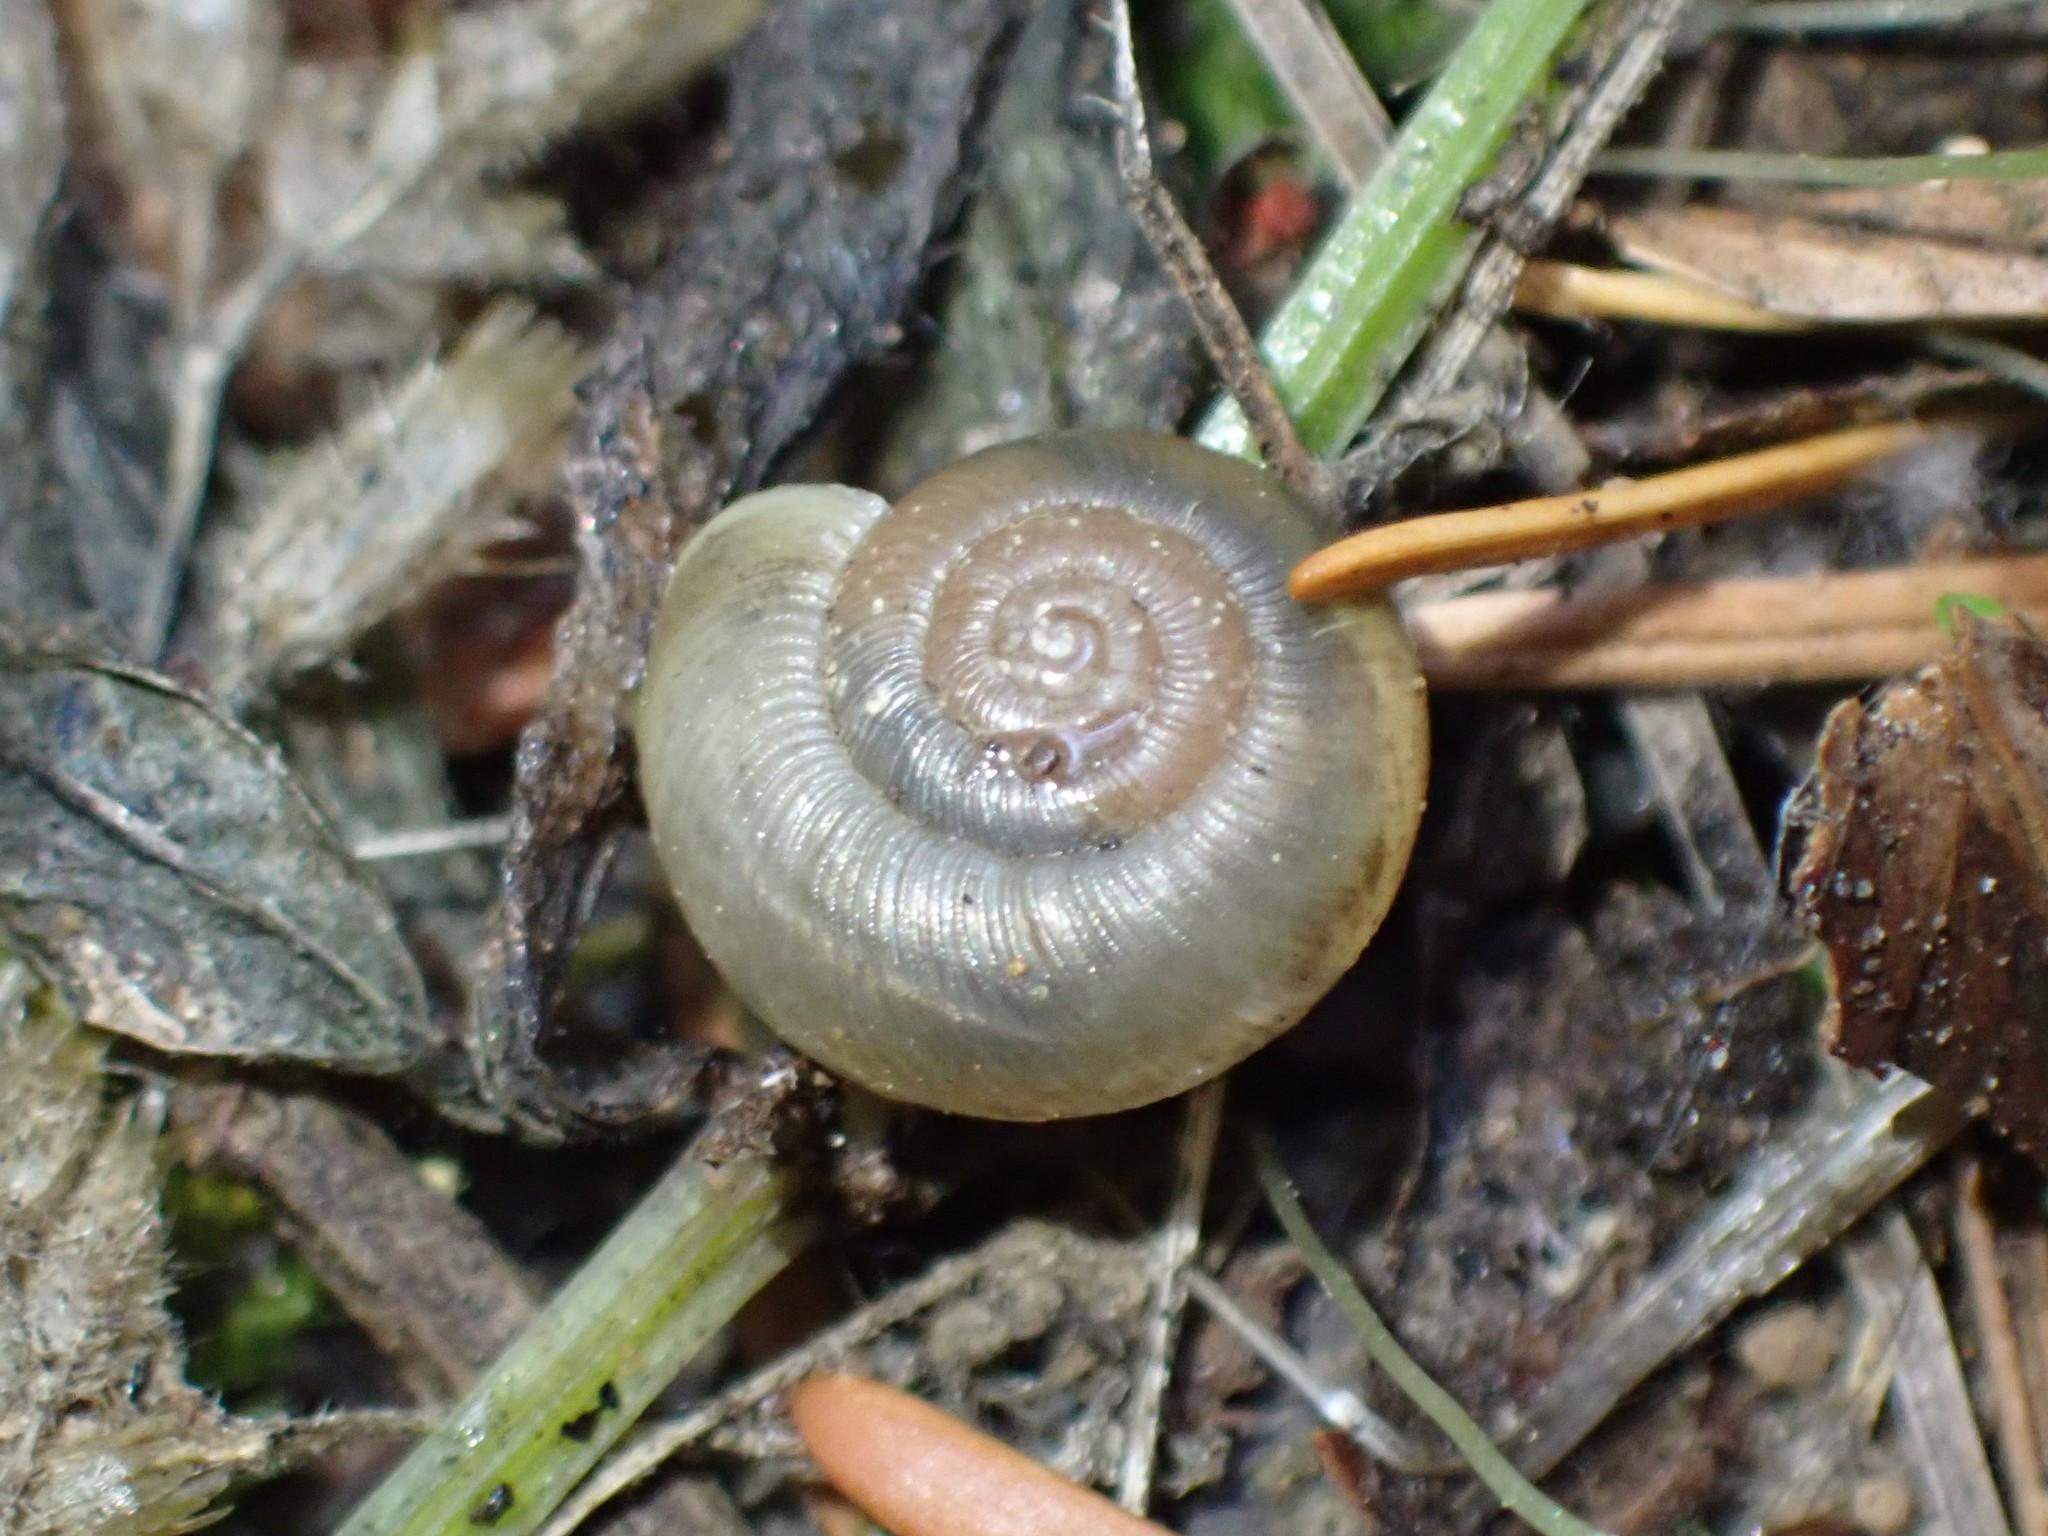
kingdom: Animalia
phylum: Mollusca
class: Gastropoda
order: Stylommatophora
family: Haplotrematidae
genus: Ancotrema
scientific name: Ancotrema sportella
